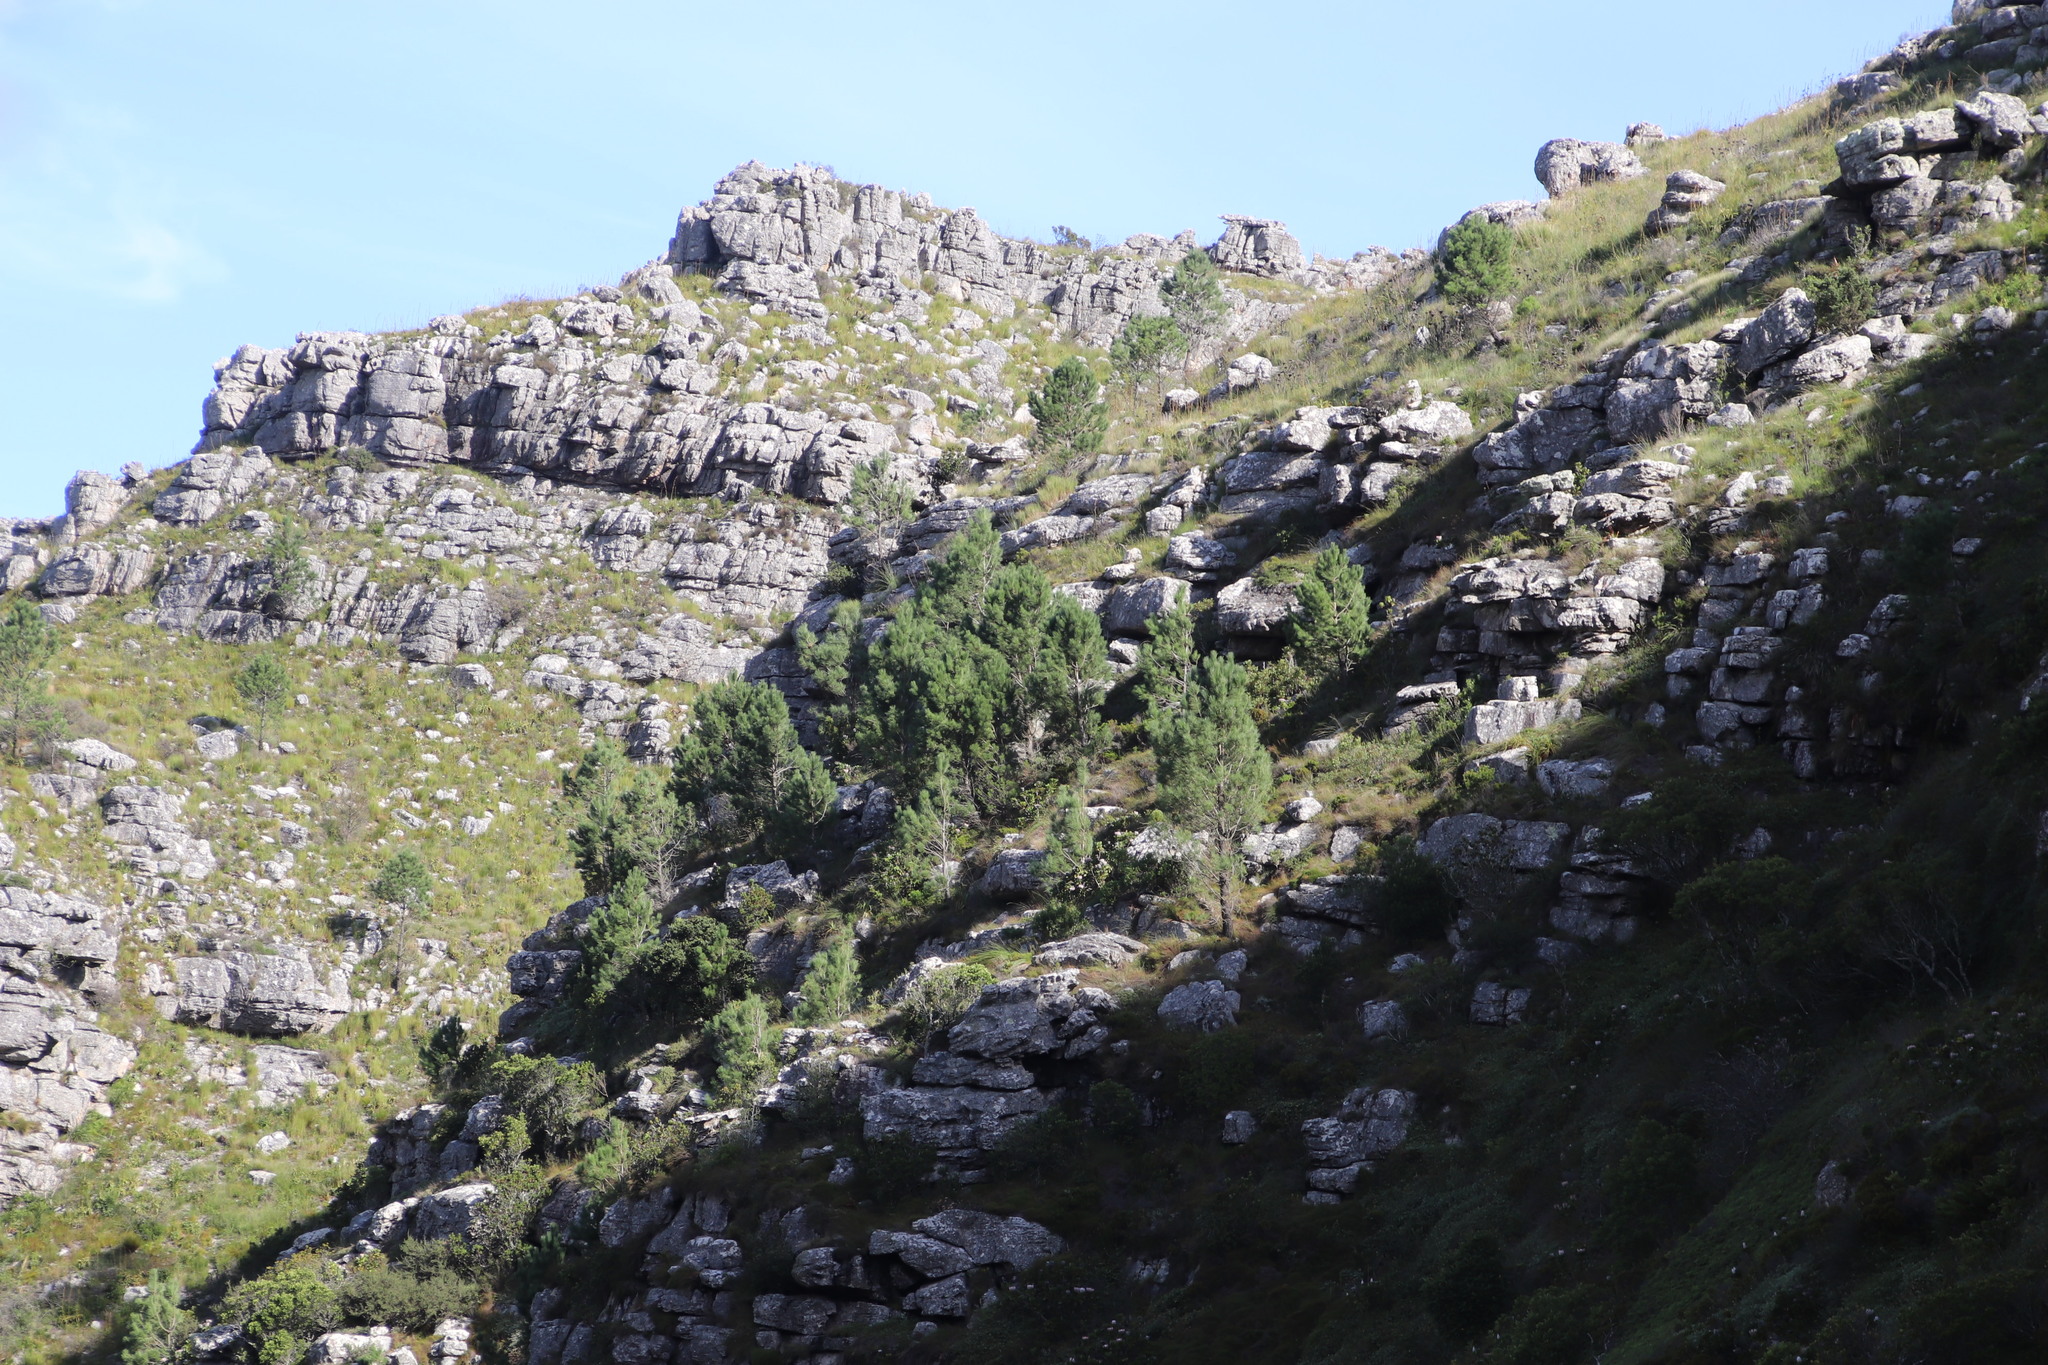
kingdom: Plantae
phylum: Tracheophyta
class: Pinopsida
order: Pinales
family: Pinaceae
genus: Pinus
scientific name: Pinus pinaster
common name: Maritime pine
